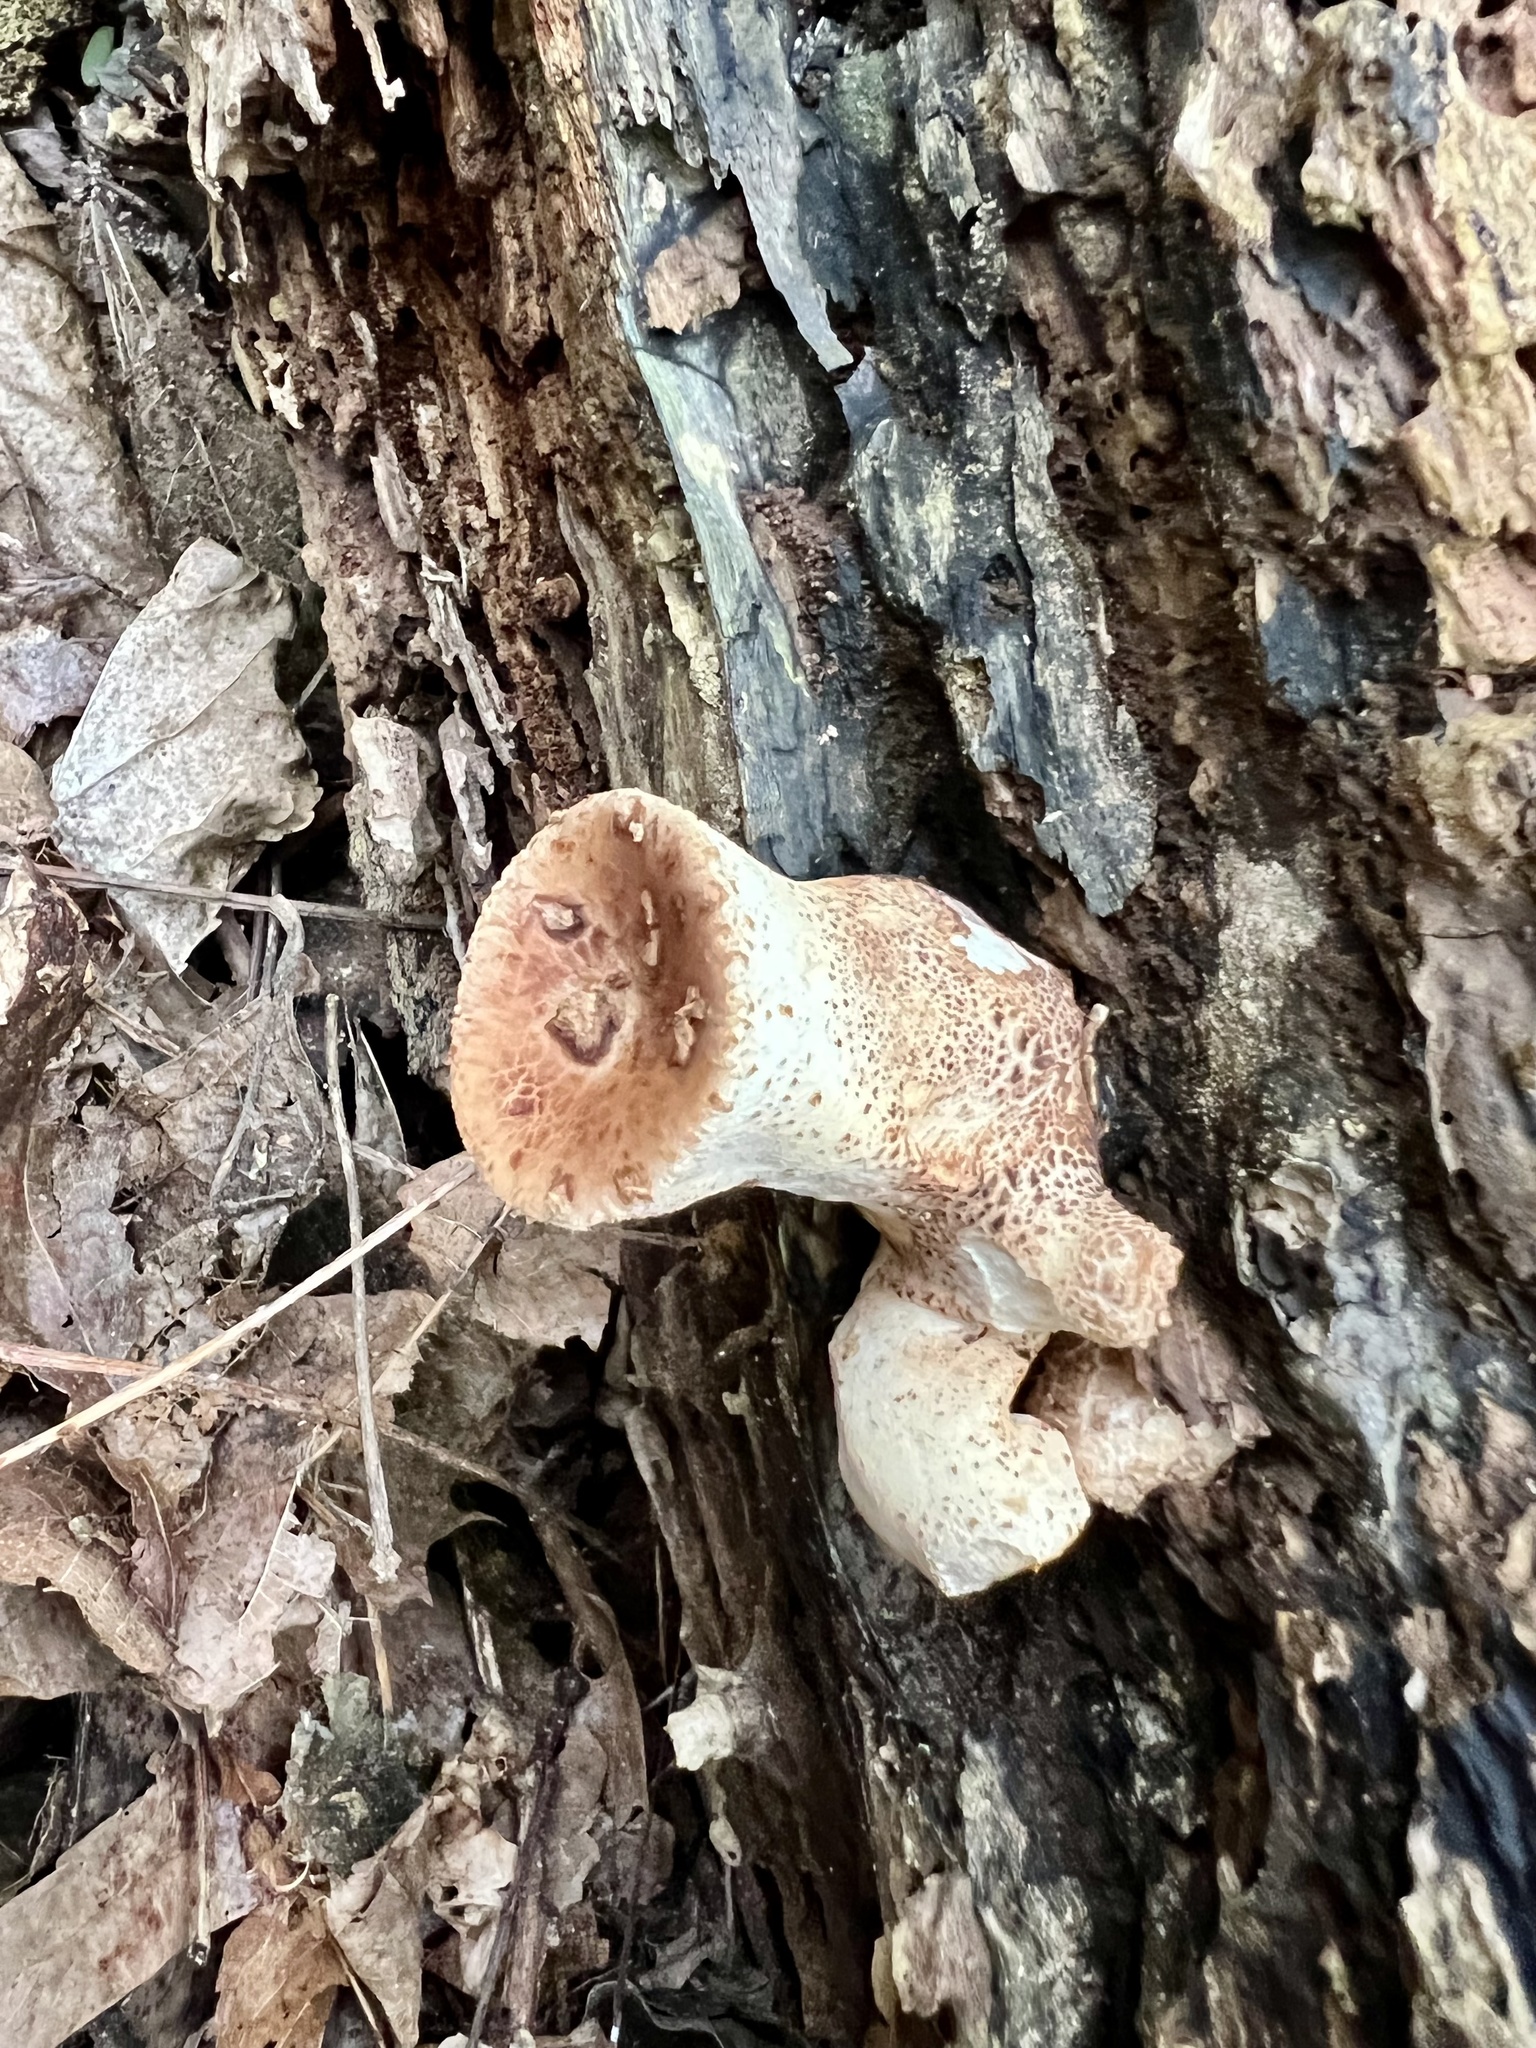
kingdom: Fungi
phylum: Basidiomycota
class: Agaricomycetes
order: Polyporales
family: Polyporaceae
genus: Cerioporus
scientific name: Cerioporus squamosus
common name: Dryad's saddle
